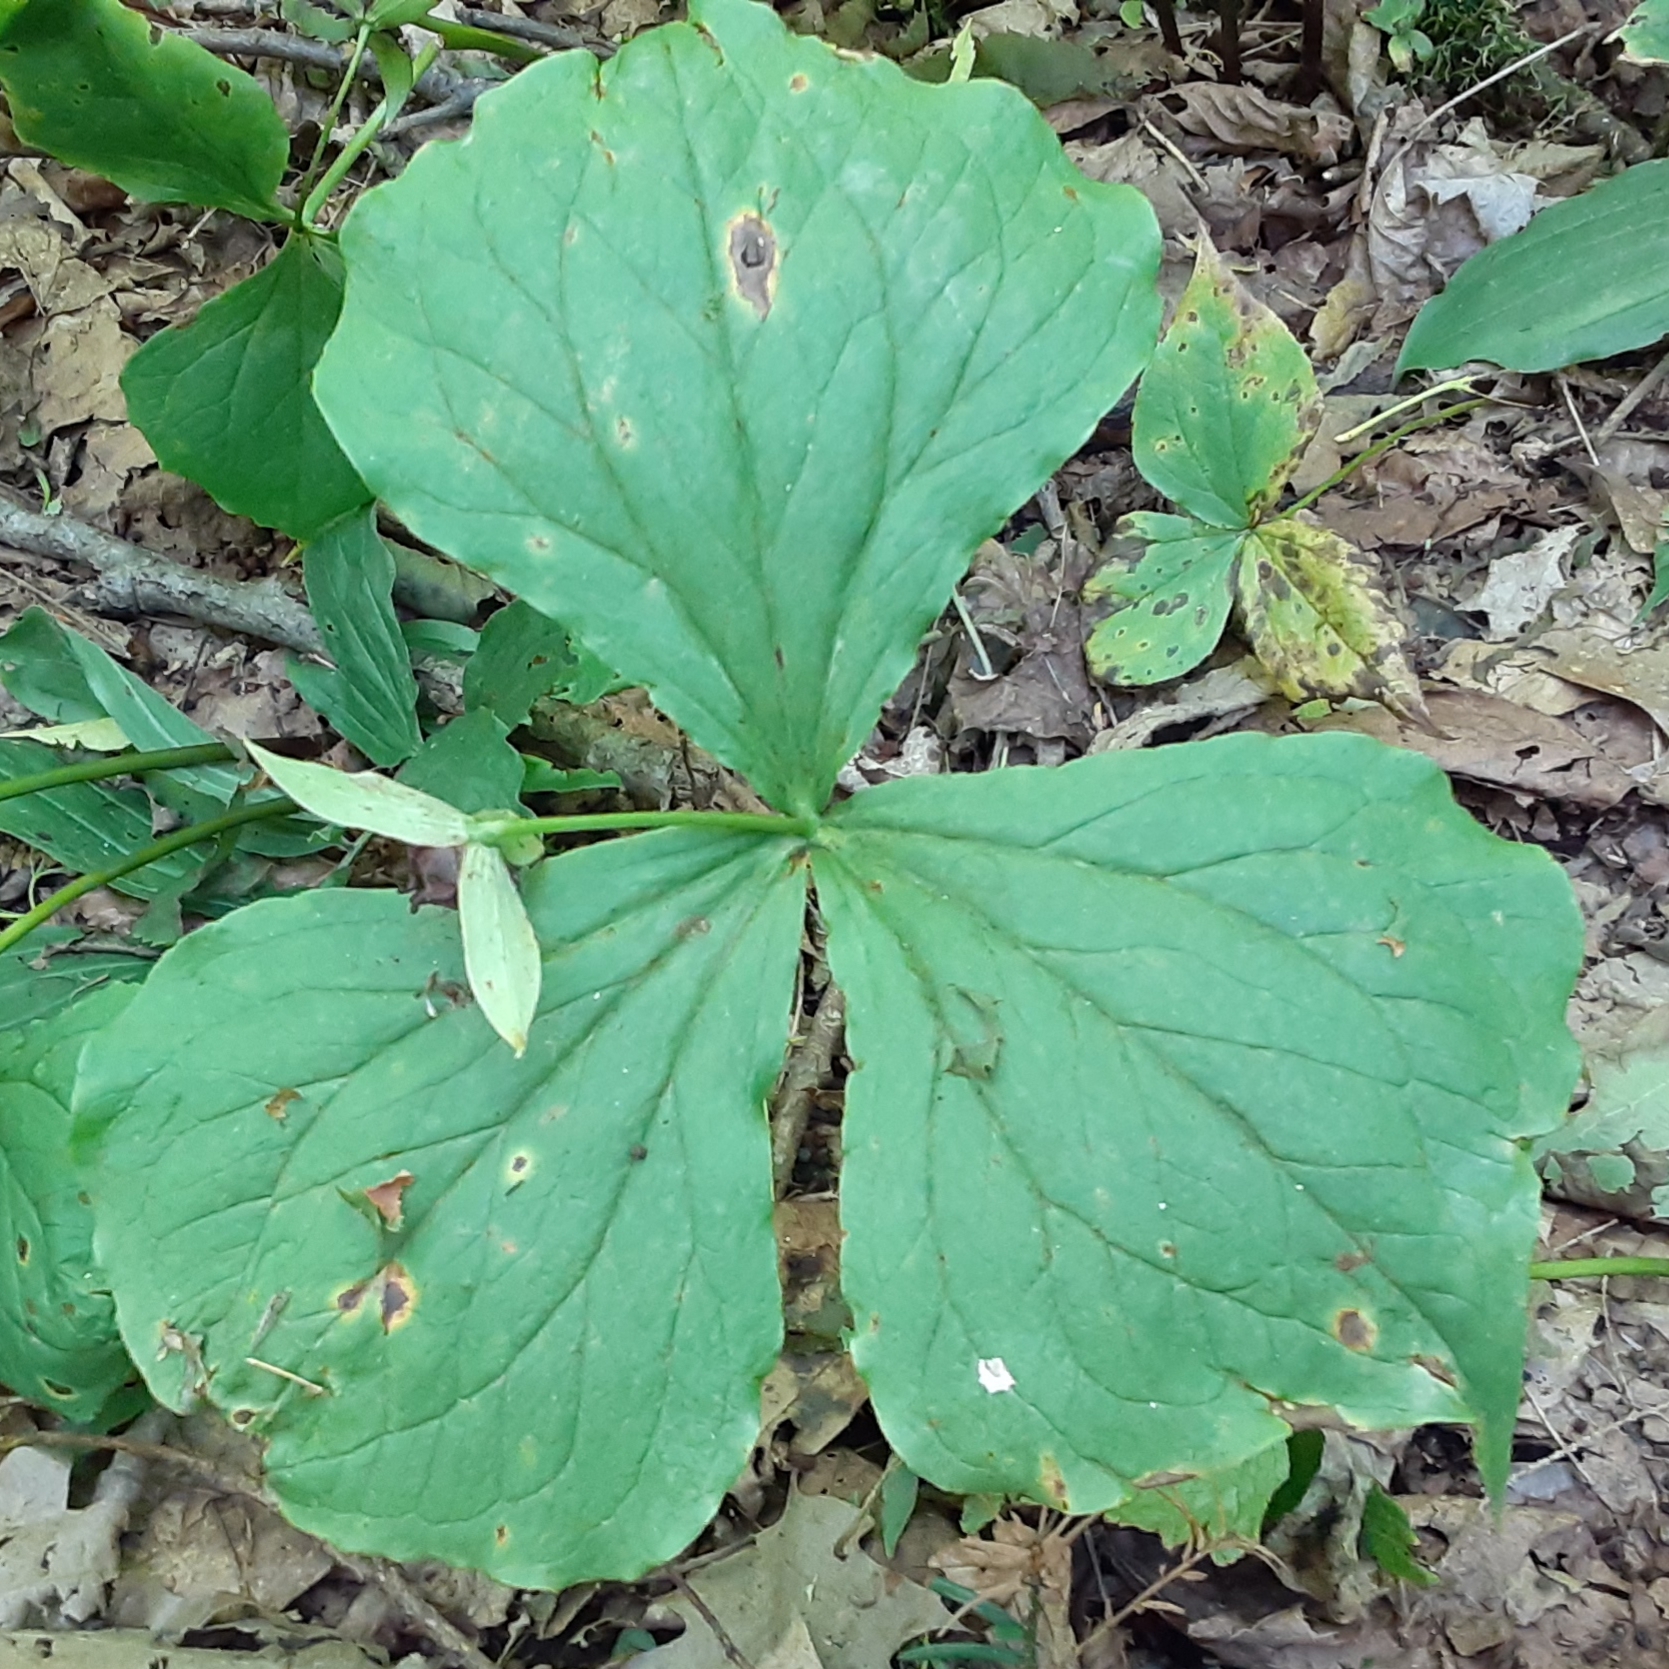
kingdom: Plantae
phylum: Tracheophyta
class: Liliopsida
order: Liliales
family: Melanthiaceae
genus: Trillium
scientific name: Trillium erectum
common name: Purple trillium
